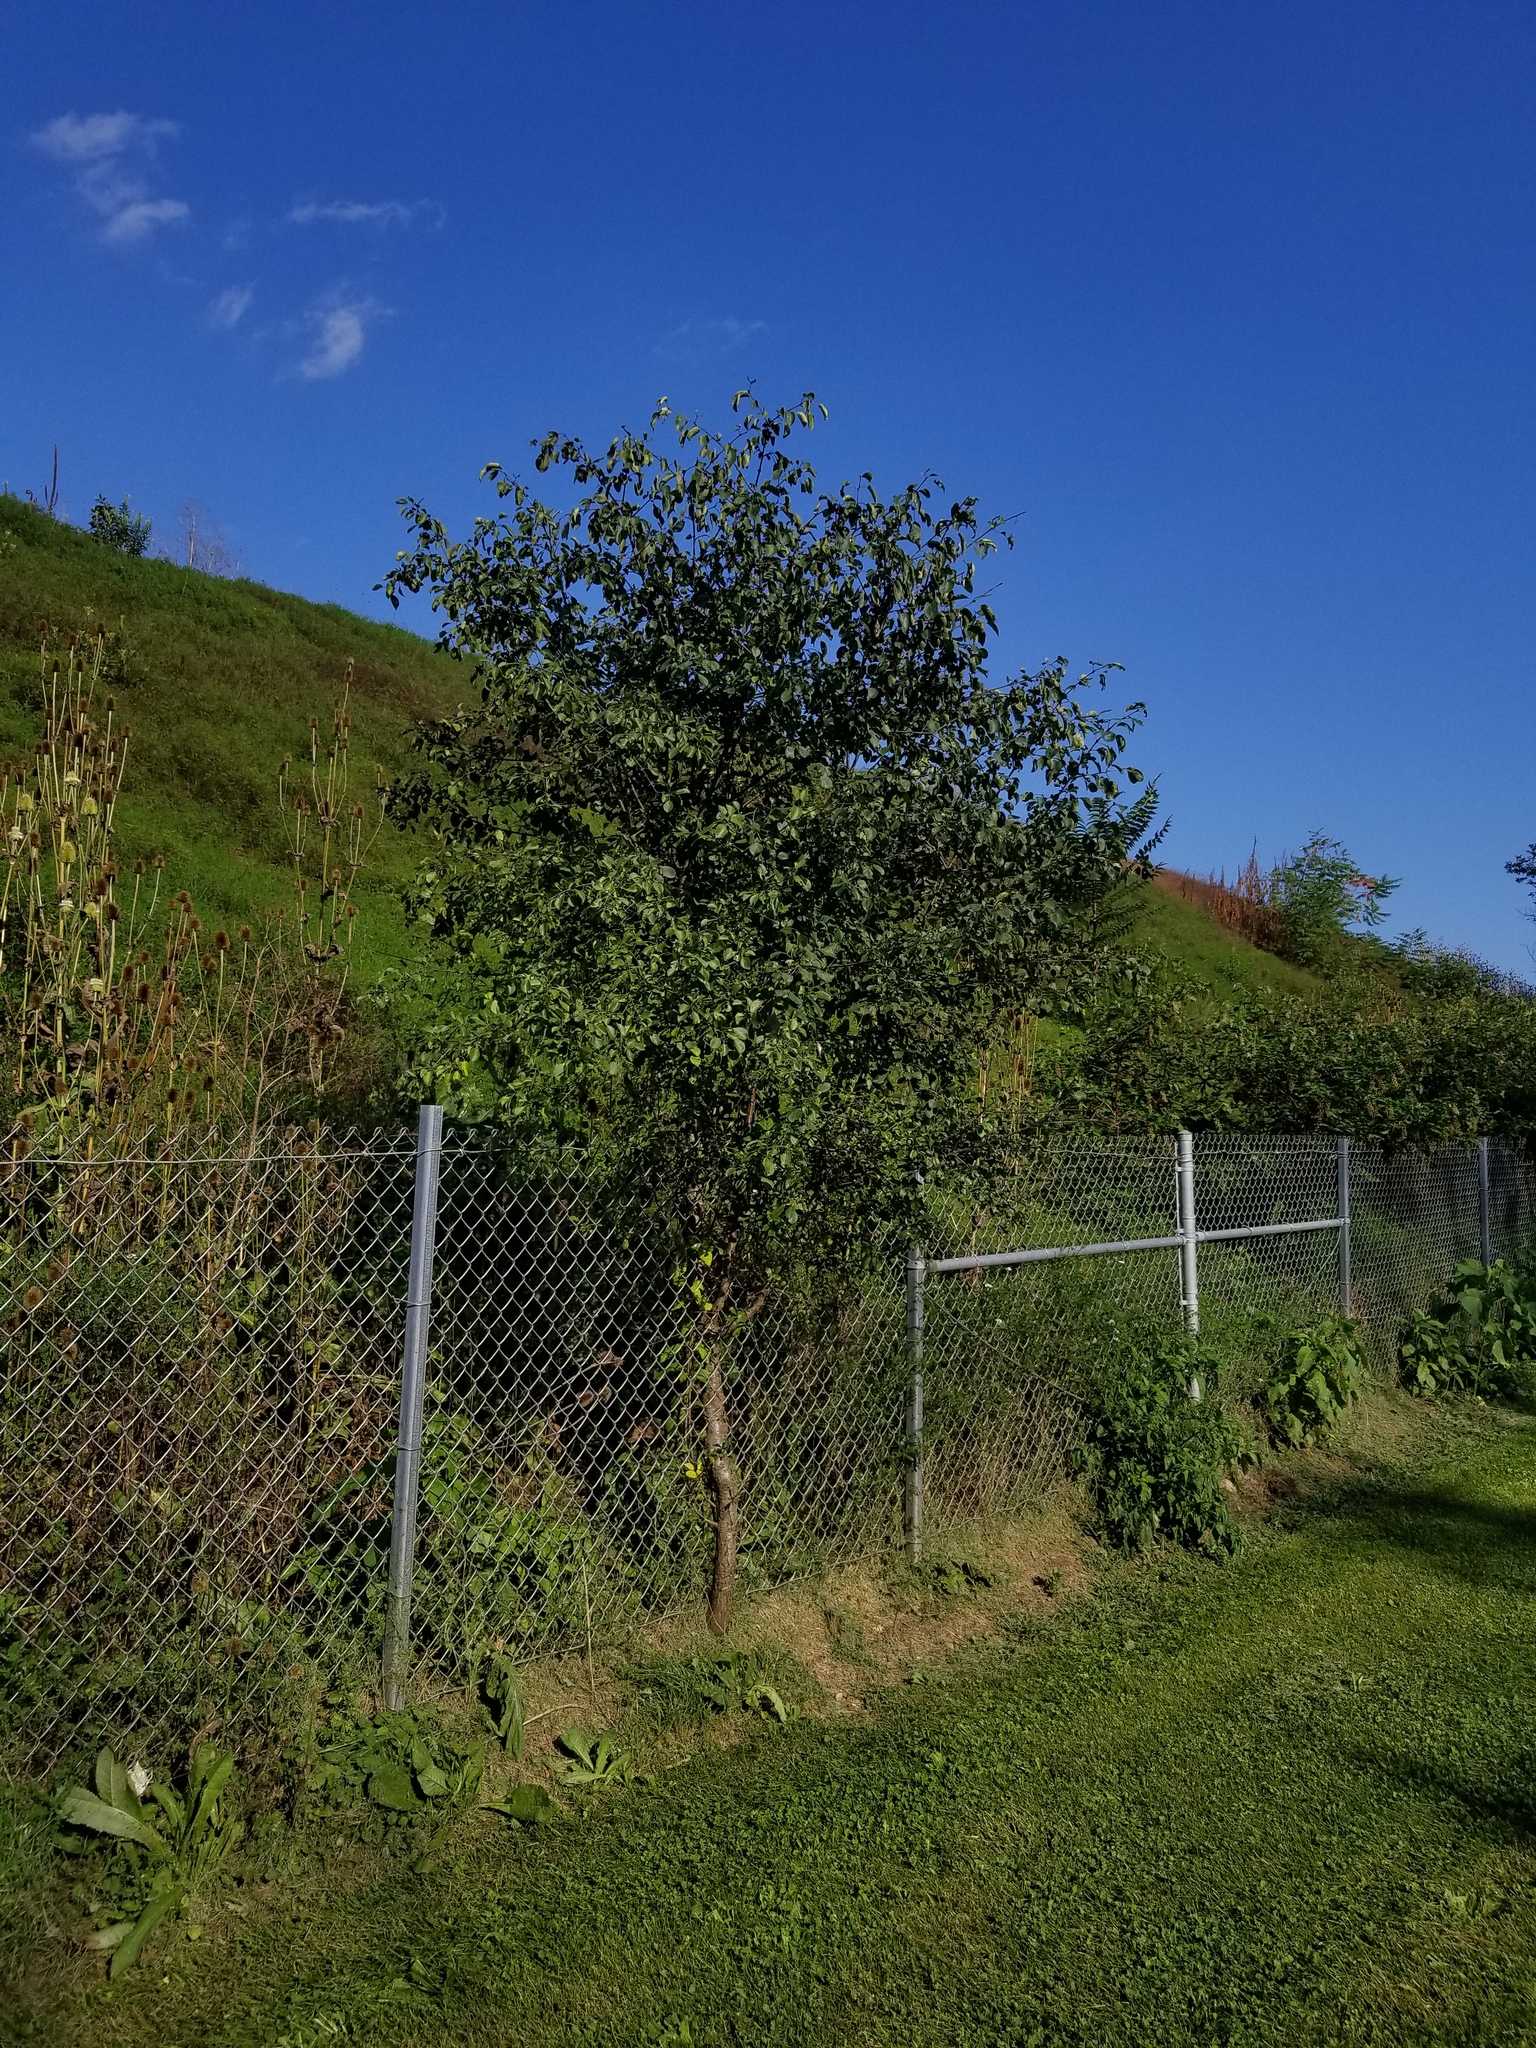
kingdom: Plantae
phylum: Tracheophyta
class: Magnoliopsida
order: Rosales
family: Rhamnaceae
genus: Rhamnus
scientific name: Rhamnus cathartica
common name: Common buckthorn
